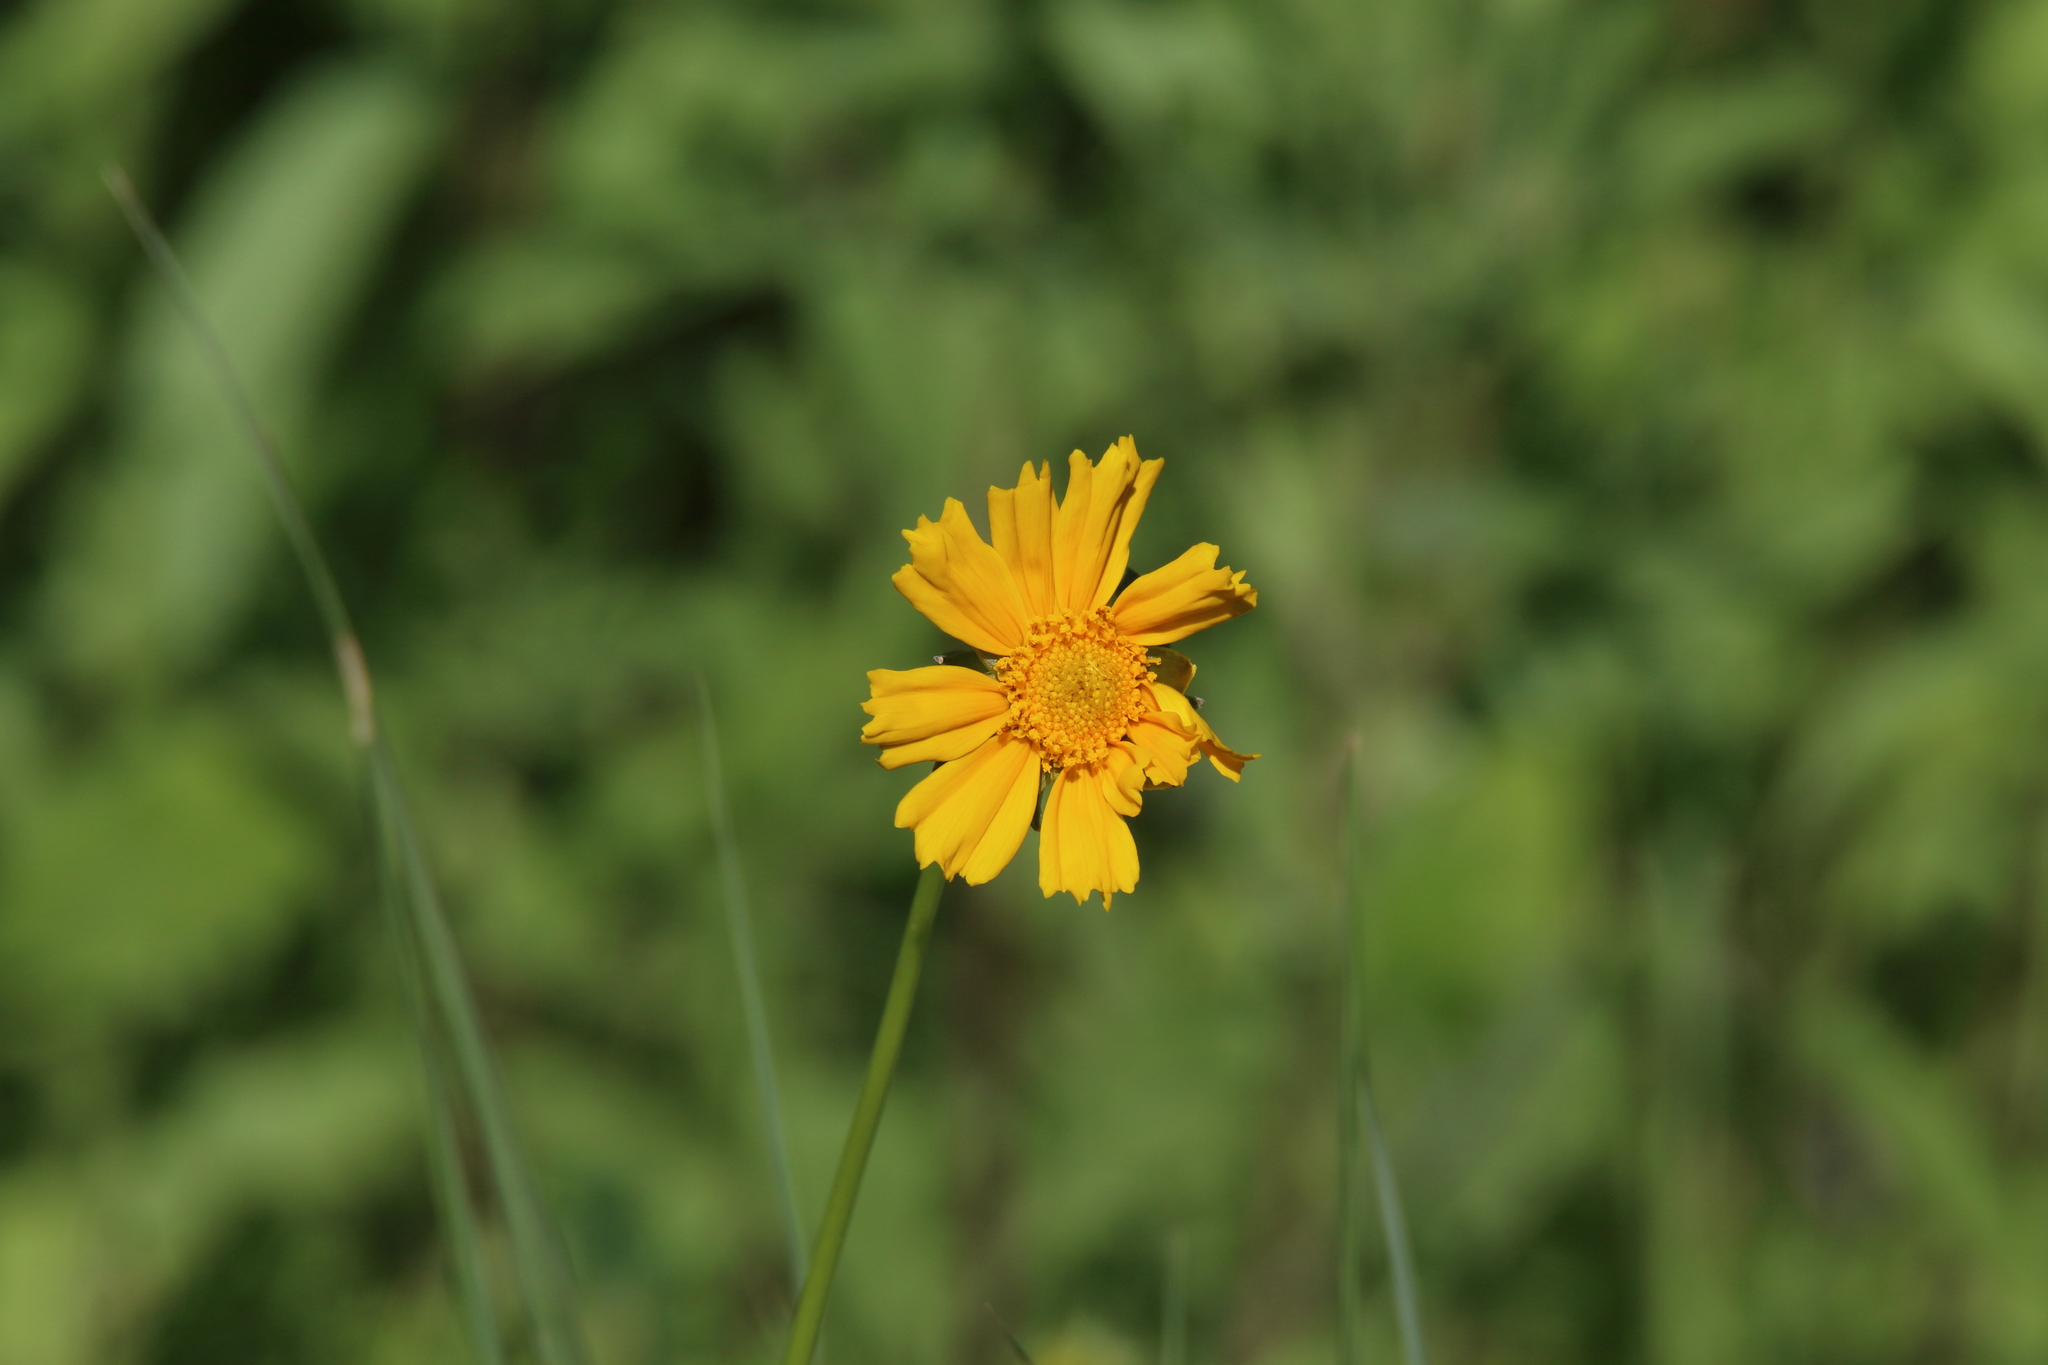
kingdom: Plantae
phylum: Tracheophyta
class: Magnoliopsida
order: Asterales
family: Asteraceae
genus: Coreopsis
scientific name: Coreopsis lanceolata
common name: Garden coreopsis
